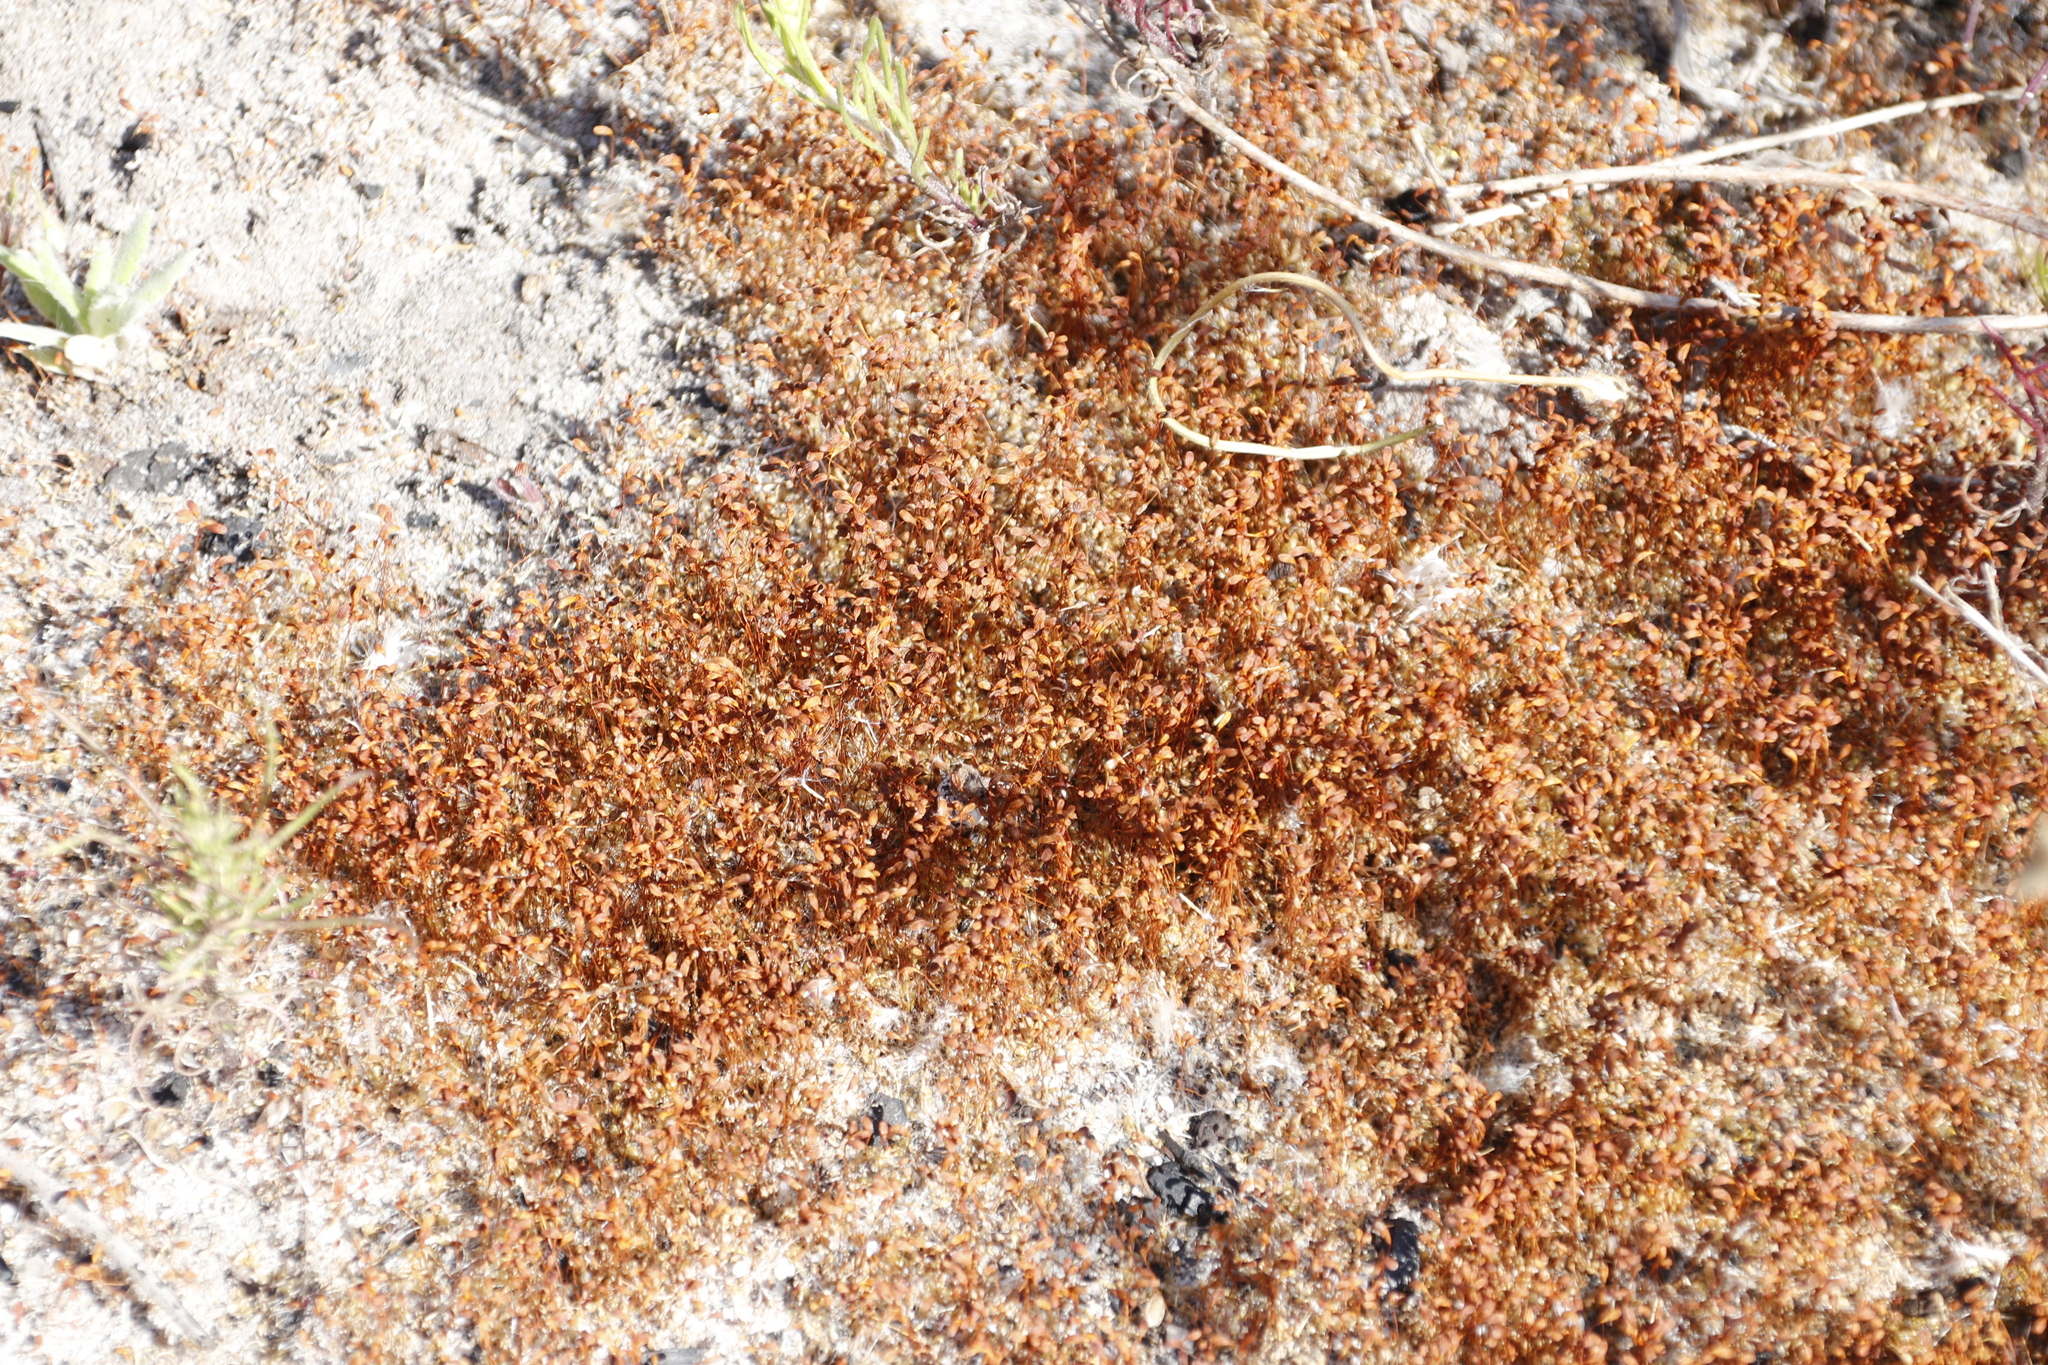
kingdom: Plantae
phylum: Bryophyta
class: Bryopsida
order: Funariales
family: Funariaceae
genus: Funaria
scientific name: Funaria hygrometrica
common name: Common cord moss
